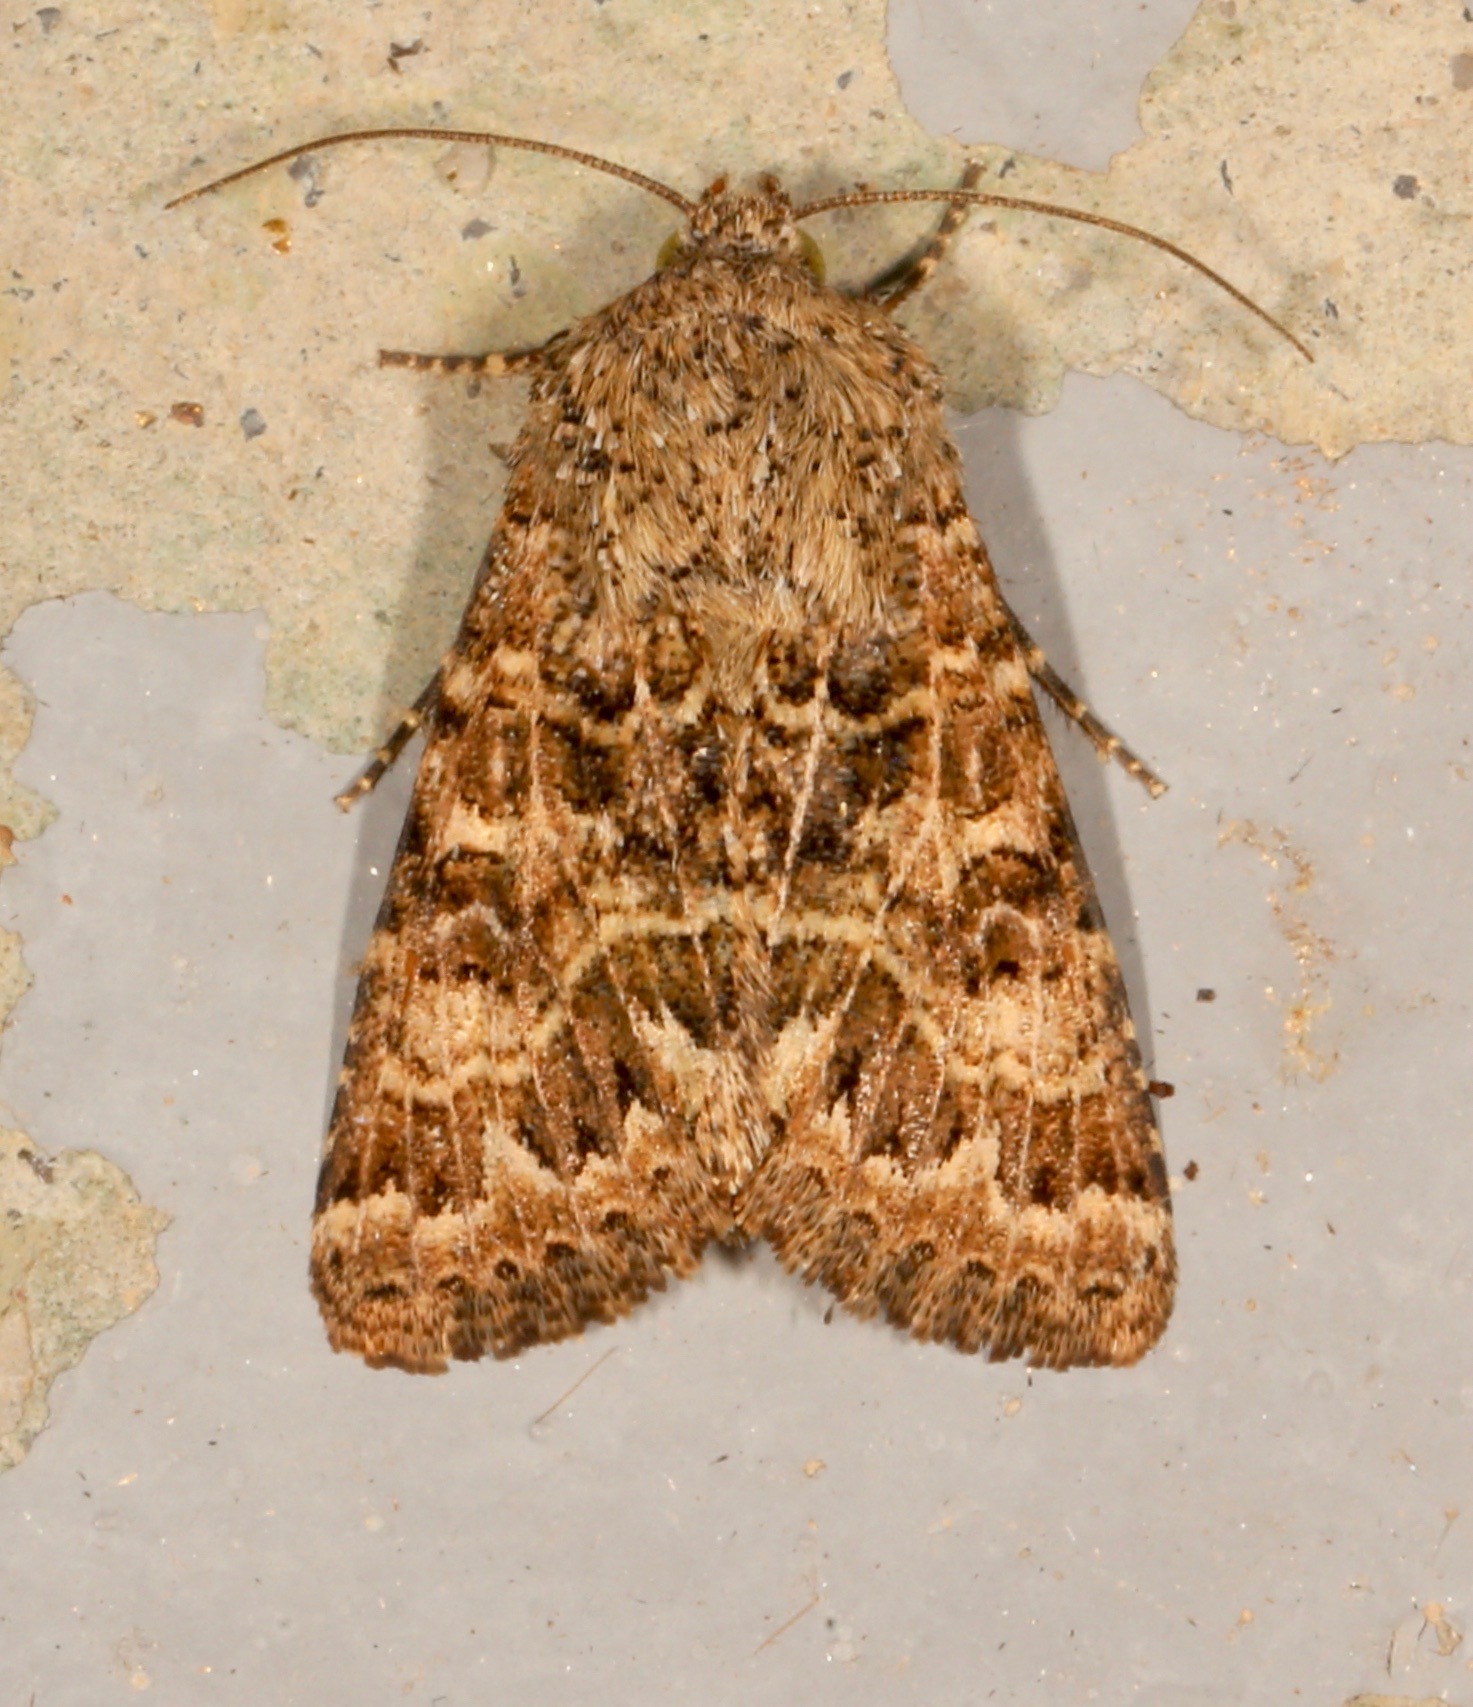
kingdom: Animalia
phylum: Arthropoda
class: Insecta
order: Lepidoptera
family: Noctuidae
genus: Schinia
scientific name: Schinia crotchii
